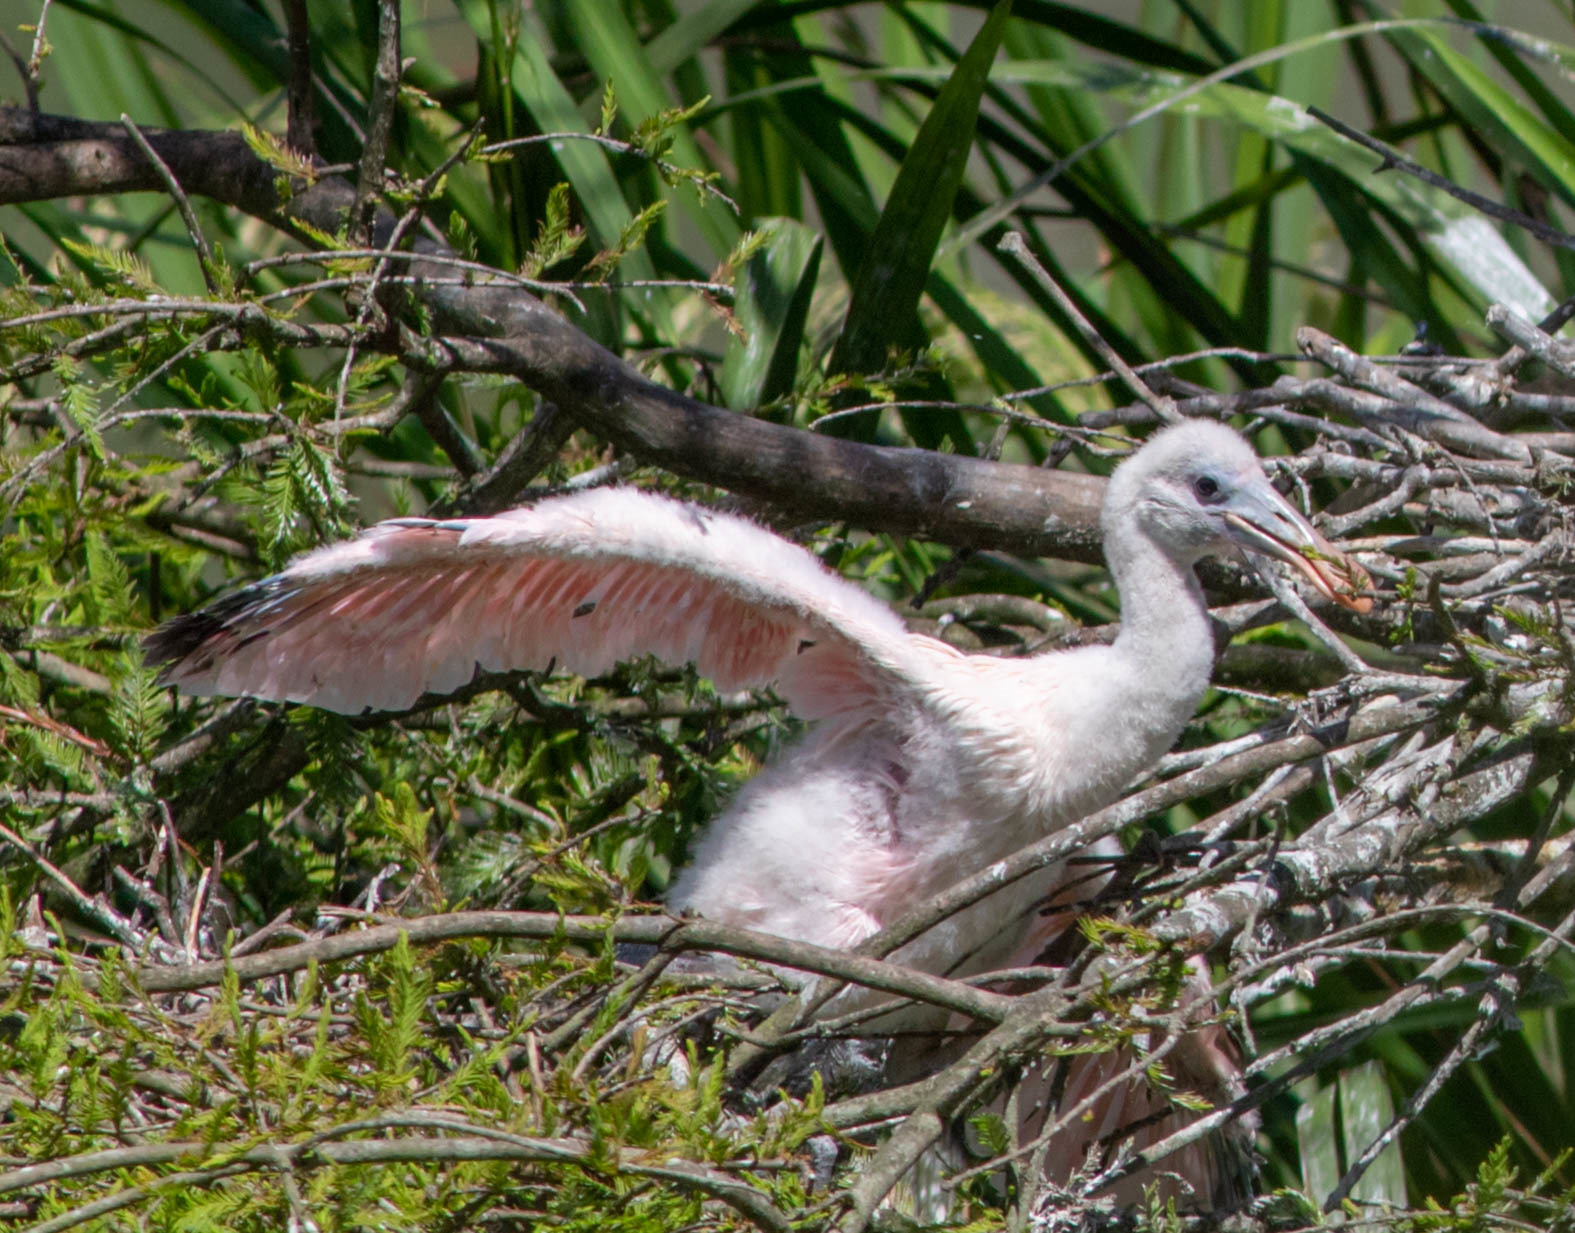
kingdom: Animalia
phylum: Chordata
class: Aves
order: Pelecaniformes
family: Threskiornithidae
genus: Platalea
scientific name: Platalea ajaja
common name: Roseate spoonbill
